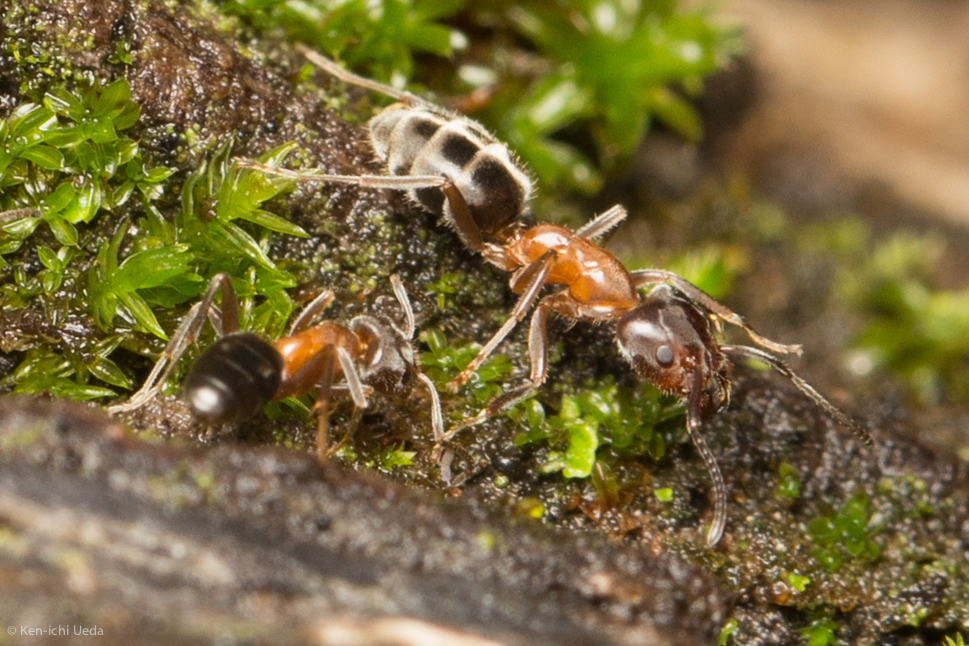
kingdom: Animalia
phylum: Arthropoda
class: Insecta
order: Hymenoptera
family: Formicidae
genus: Liometopum
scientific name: Liometopum occidentale
